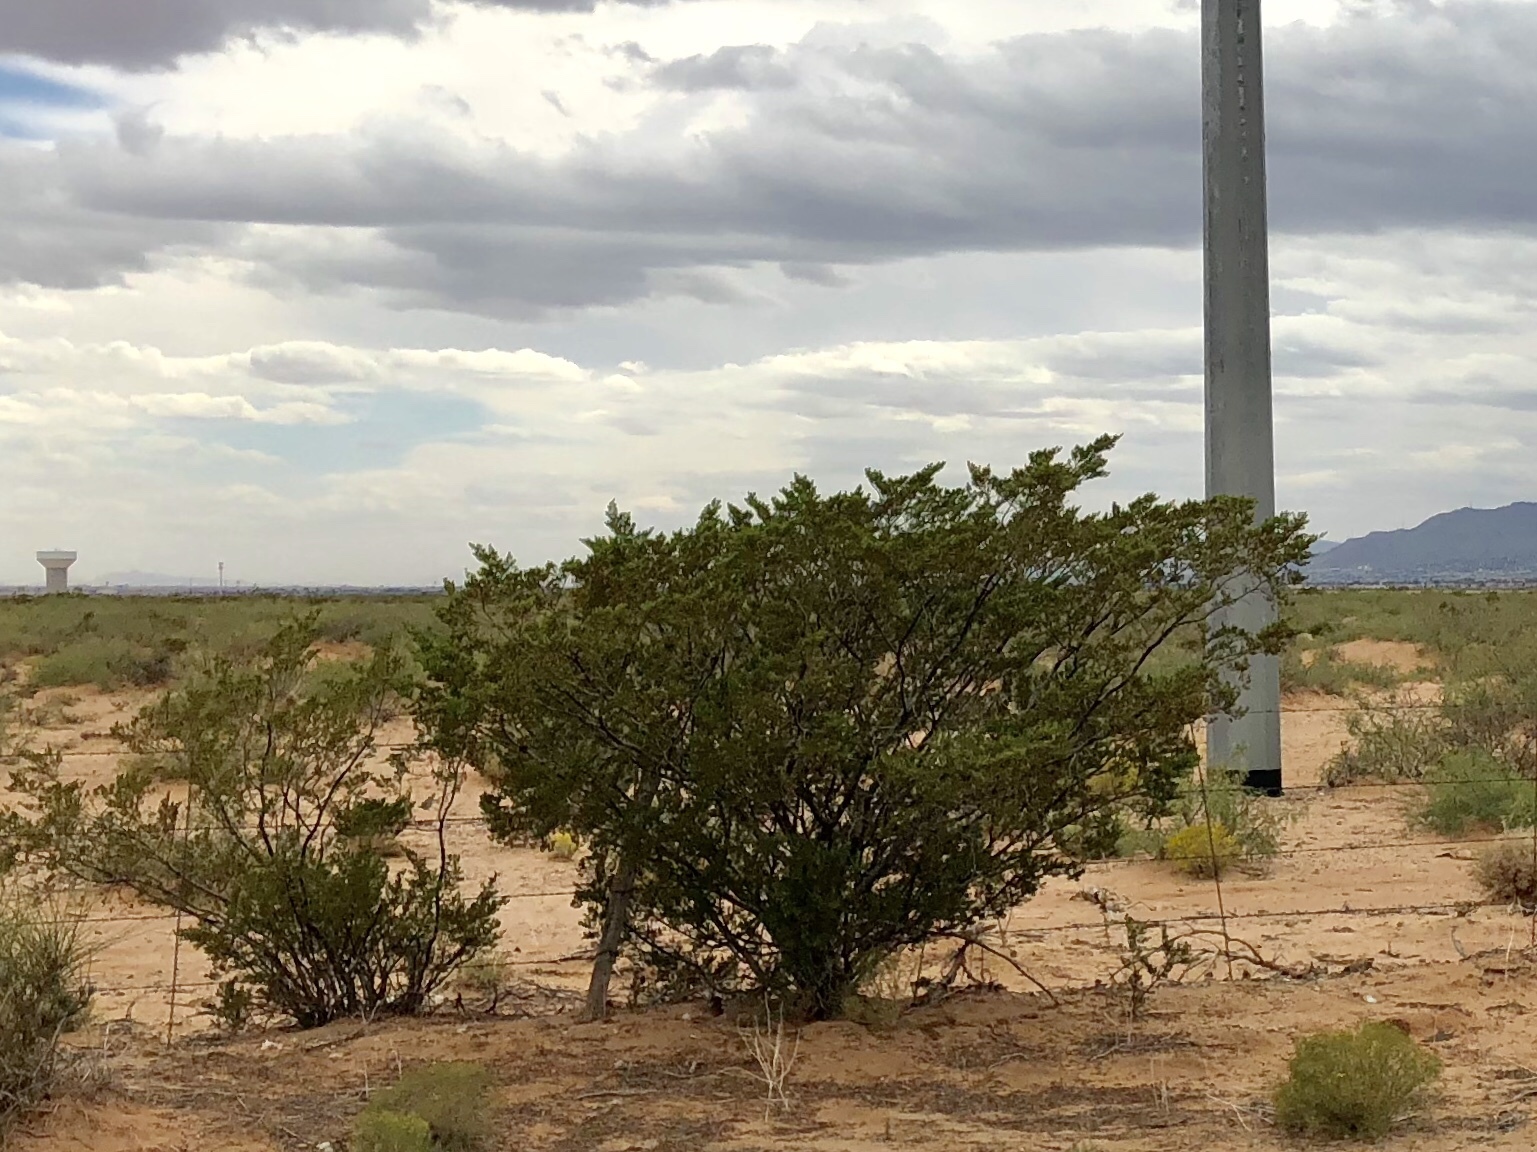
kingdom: Plantae
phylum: Tracheophyta
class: Magnoliopsida
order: Zygophyllales
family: Zygophyllaceae
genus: Larrea
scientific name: Larrea tridentata
